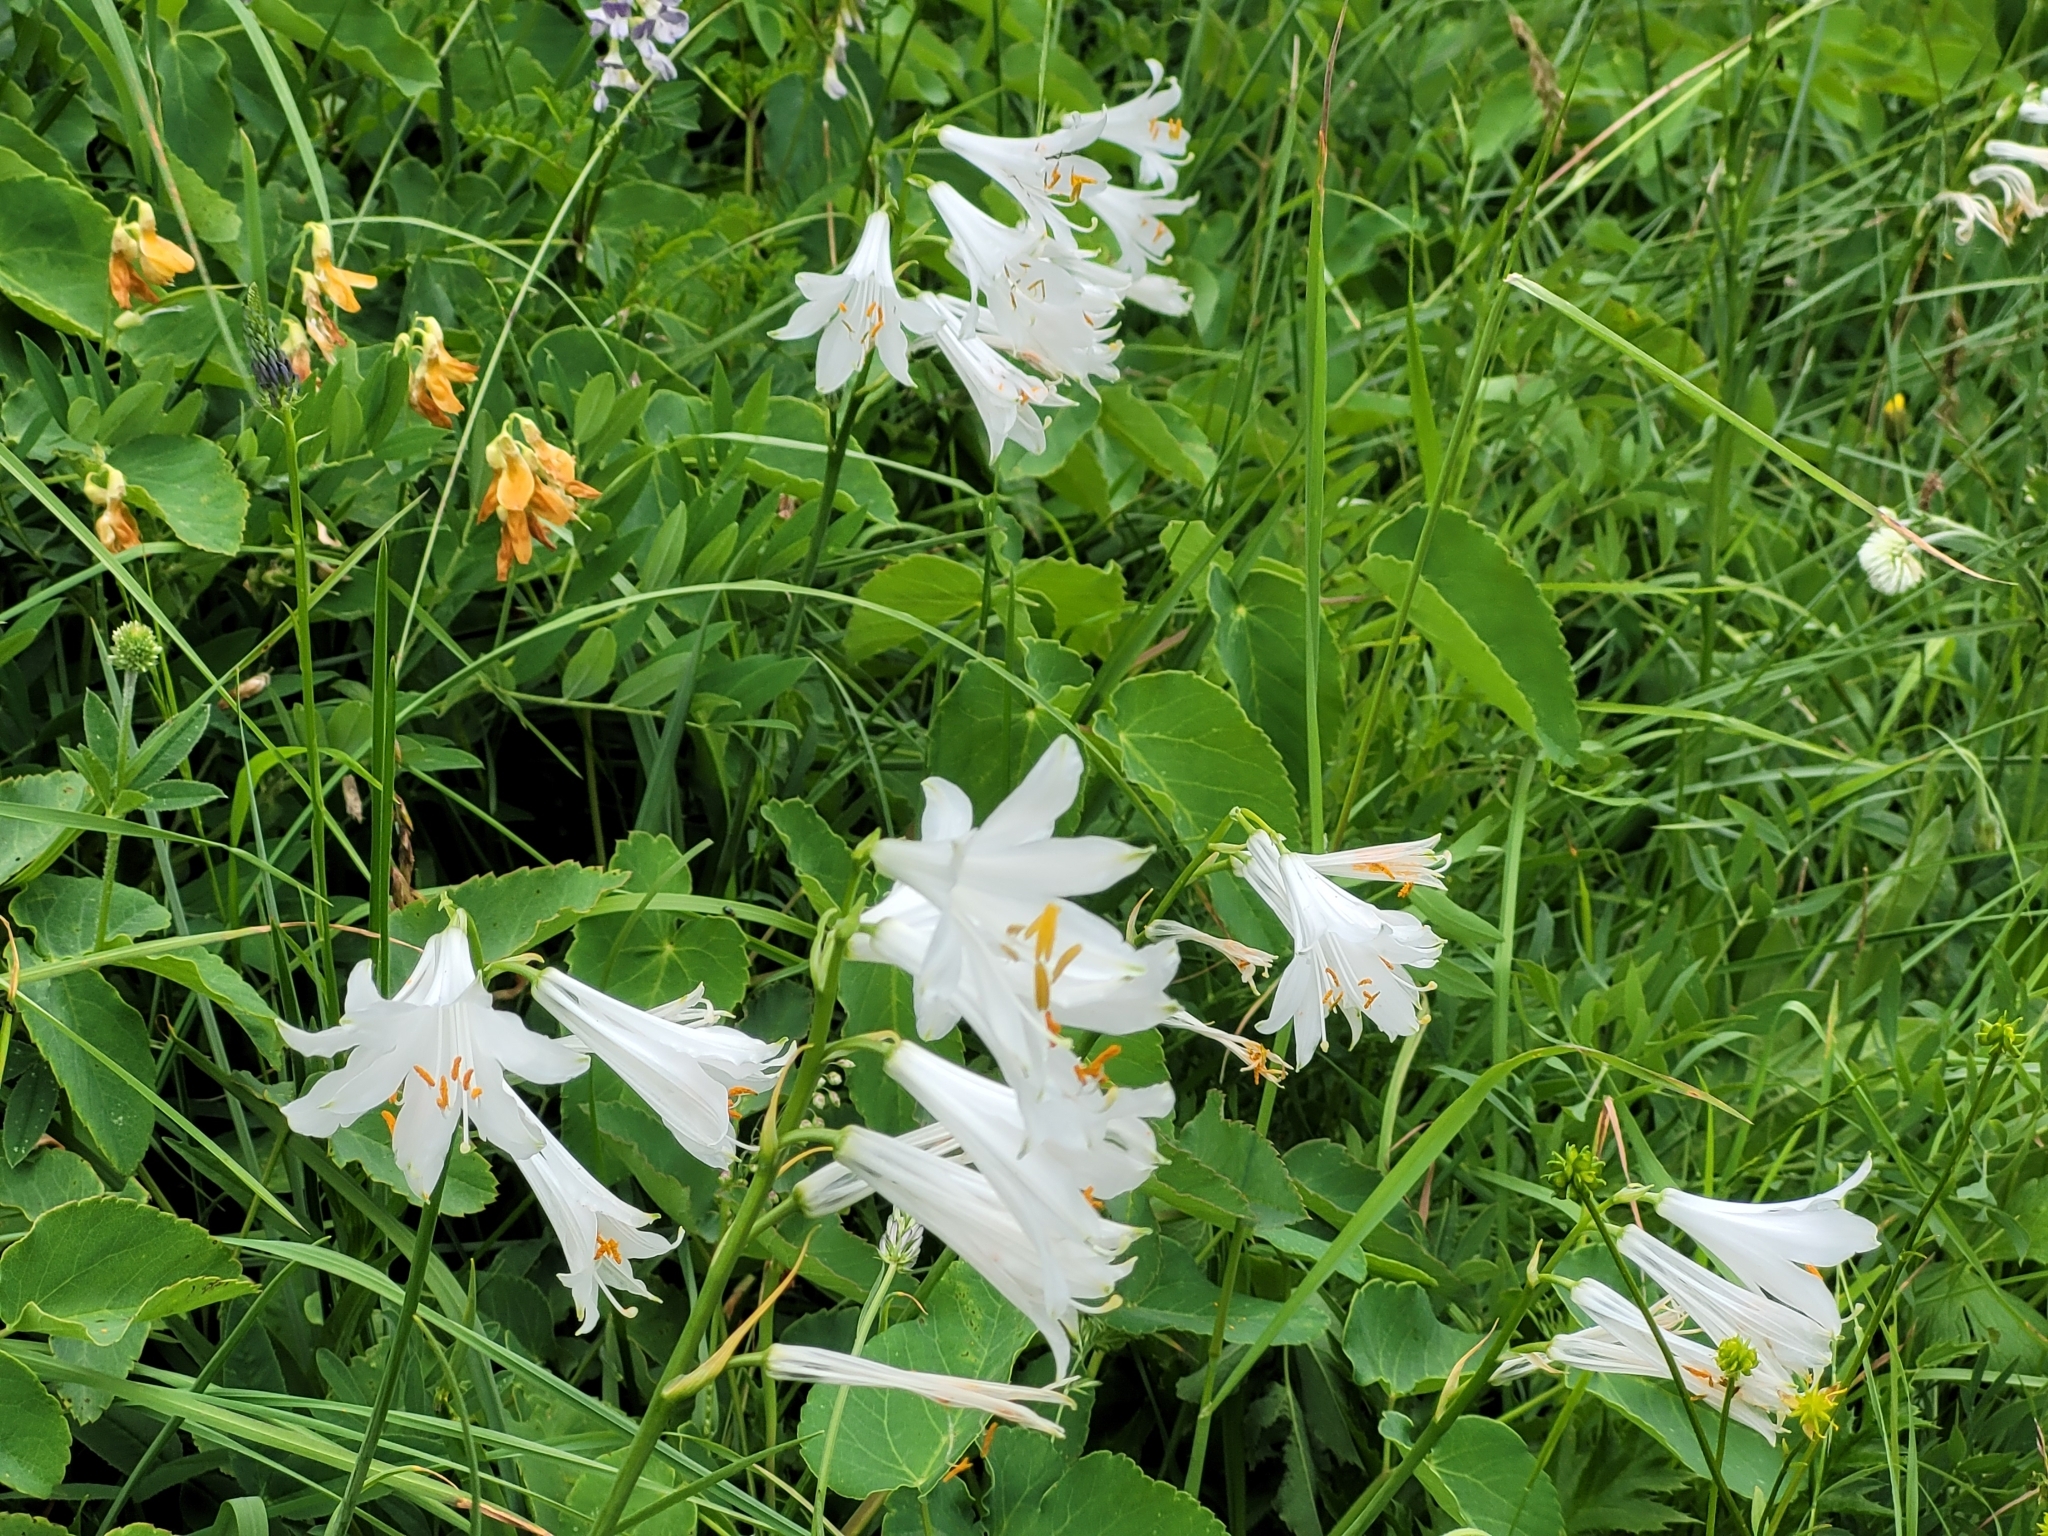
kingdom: Plantae
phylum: Tracheophyta
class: Liliopsida
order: Asparagales
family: Asparagaceae
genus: Paradisea
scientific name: Paradisea liliastrum
